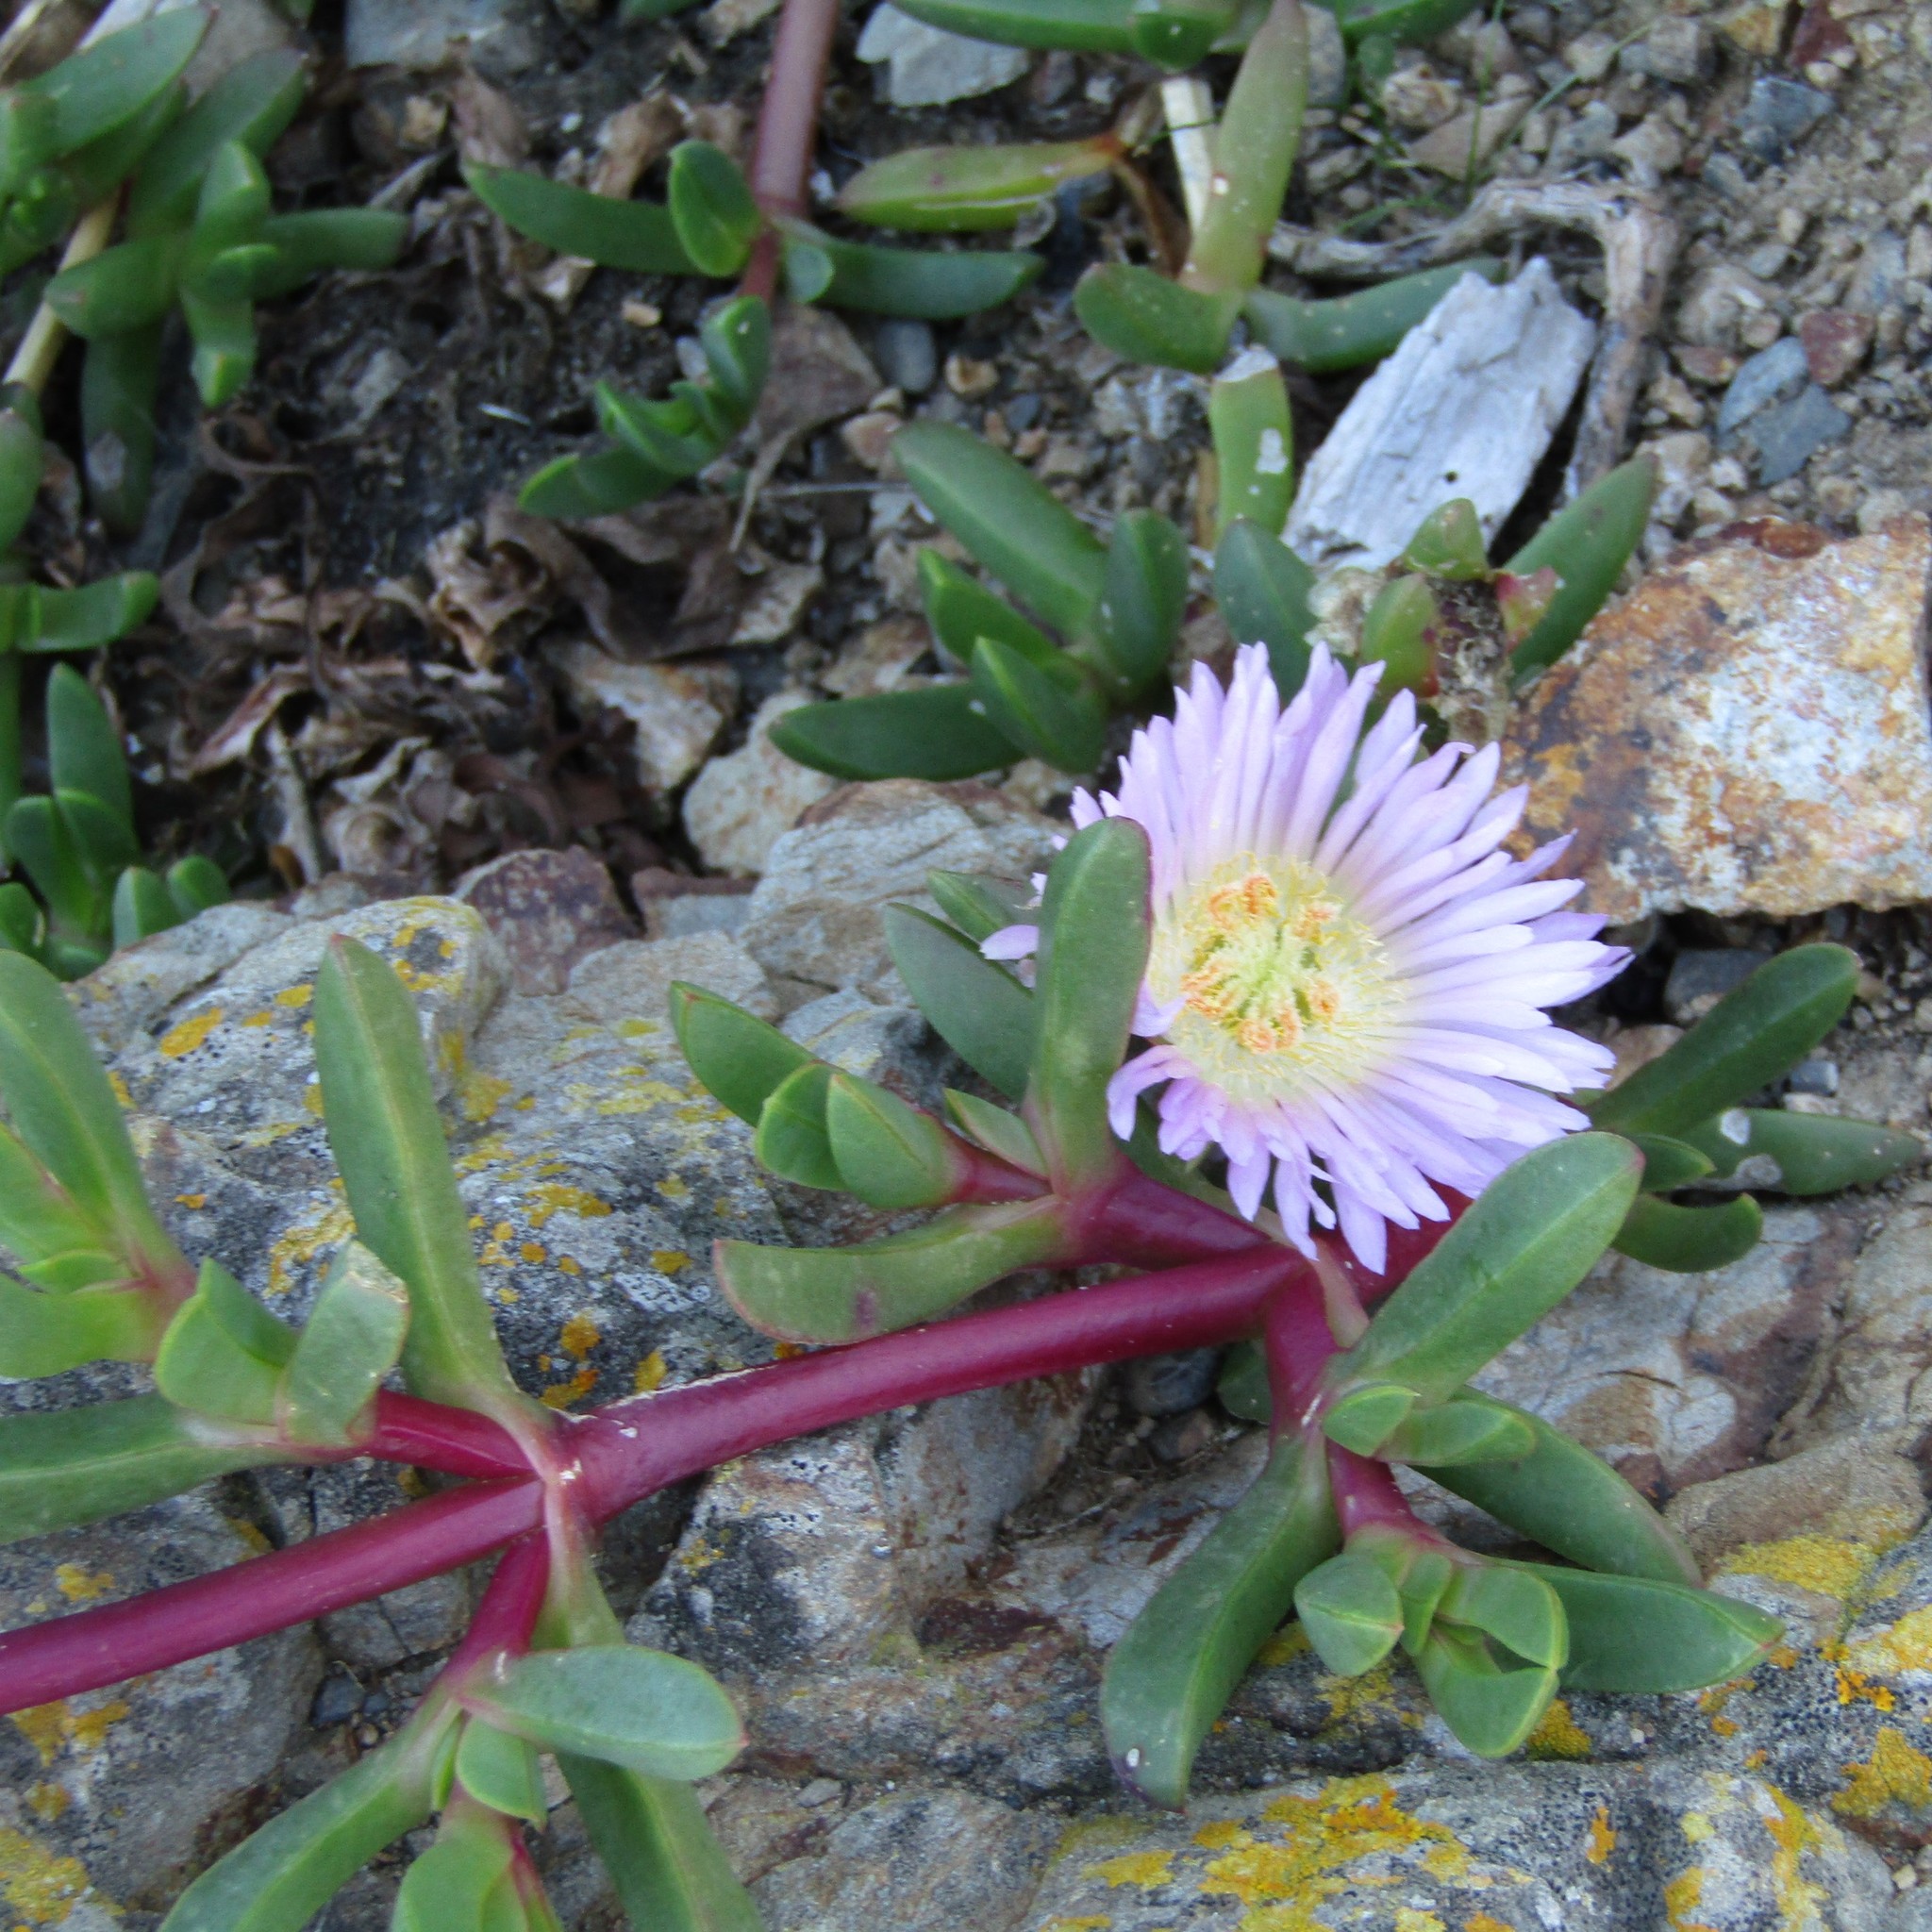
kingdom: Plantae
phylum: Tracheophyta
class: Magnoliopsida
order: Caryophyllales
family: Aizoaceae
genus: Disphyma
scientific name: Disphyma australe
